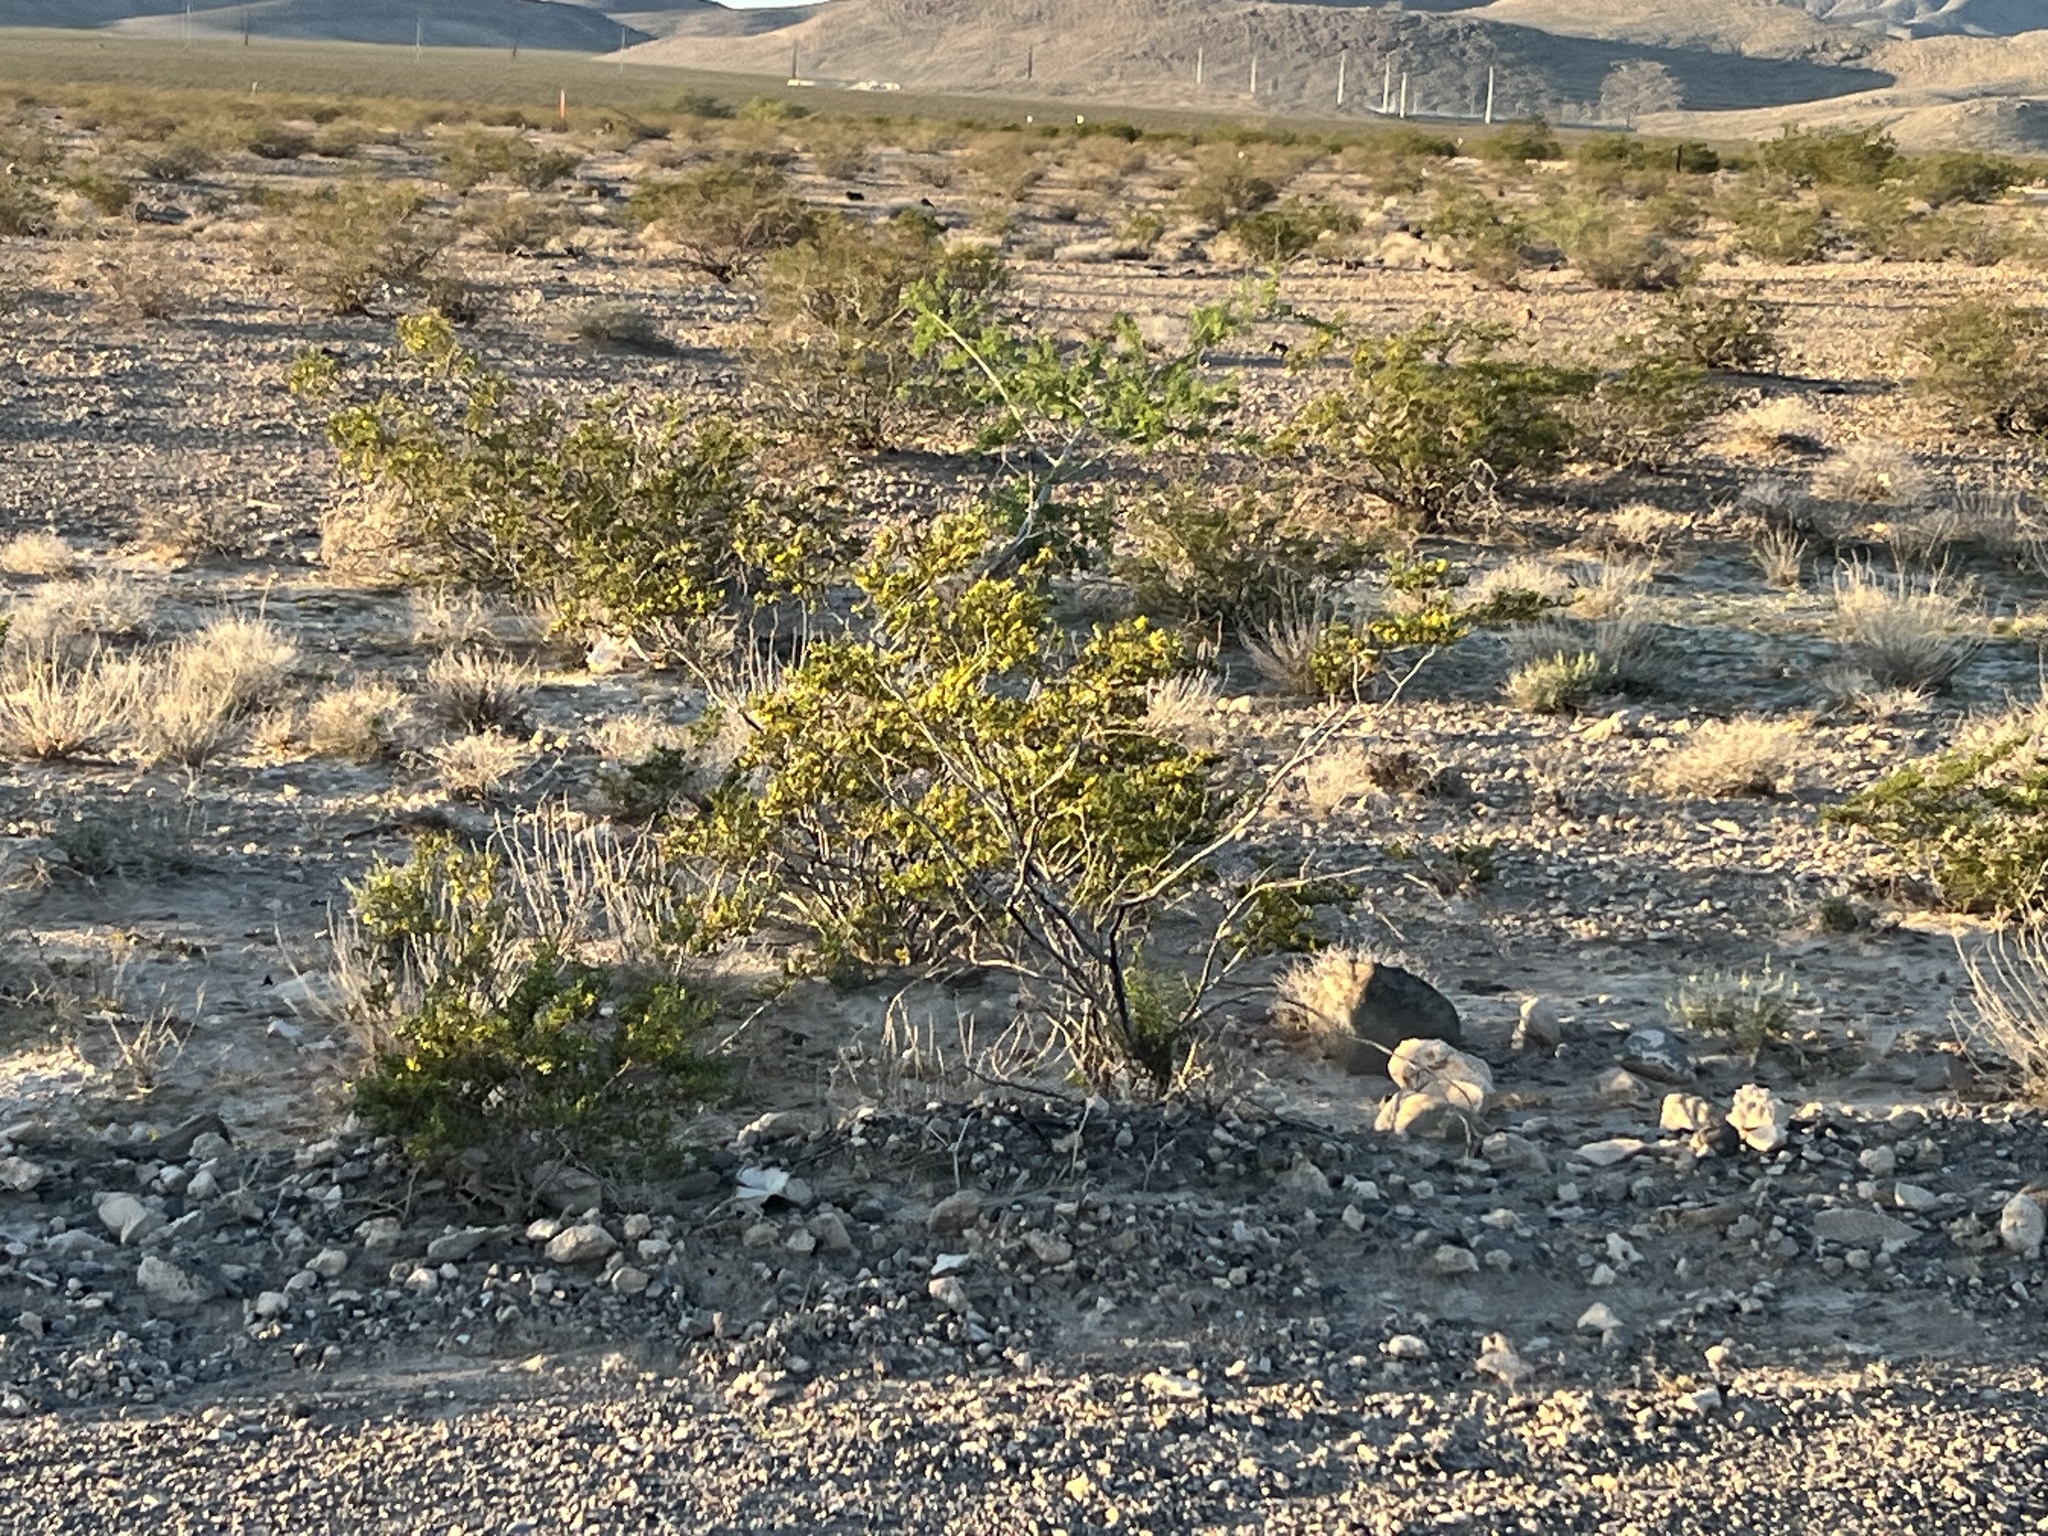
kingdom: Plantae
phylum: Tracheophyta
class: Magnoliopsida
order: Zygophyllales
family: Zygophyllaceae
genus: Larrea
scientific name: Larrea tridentata
